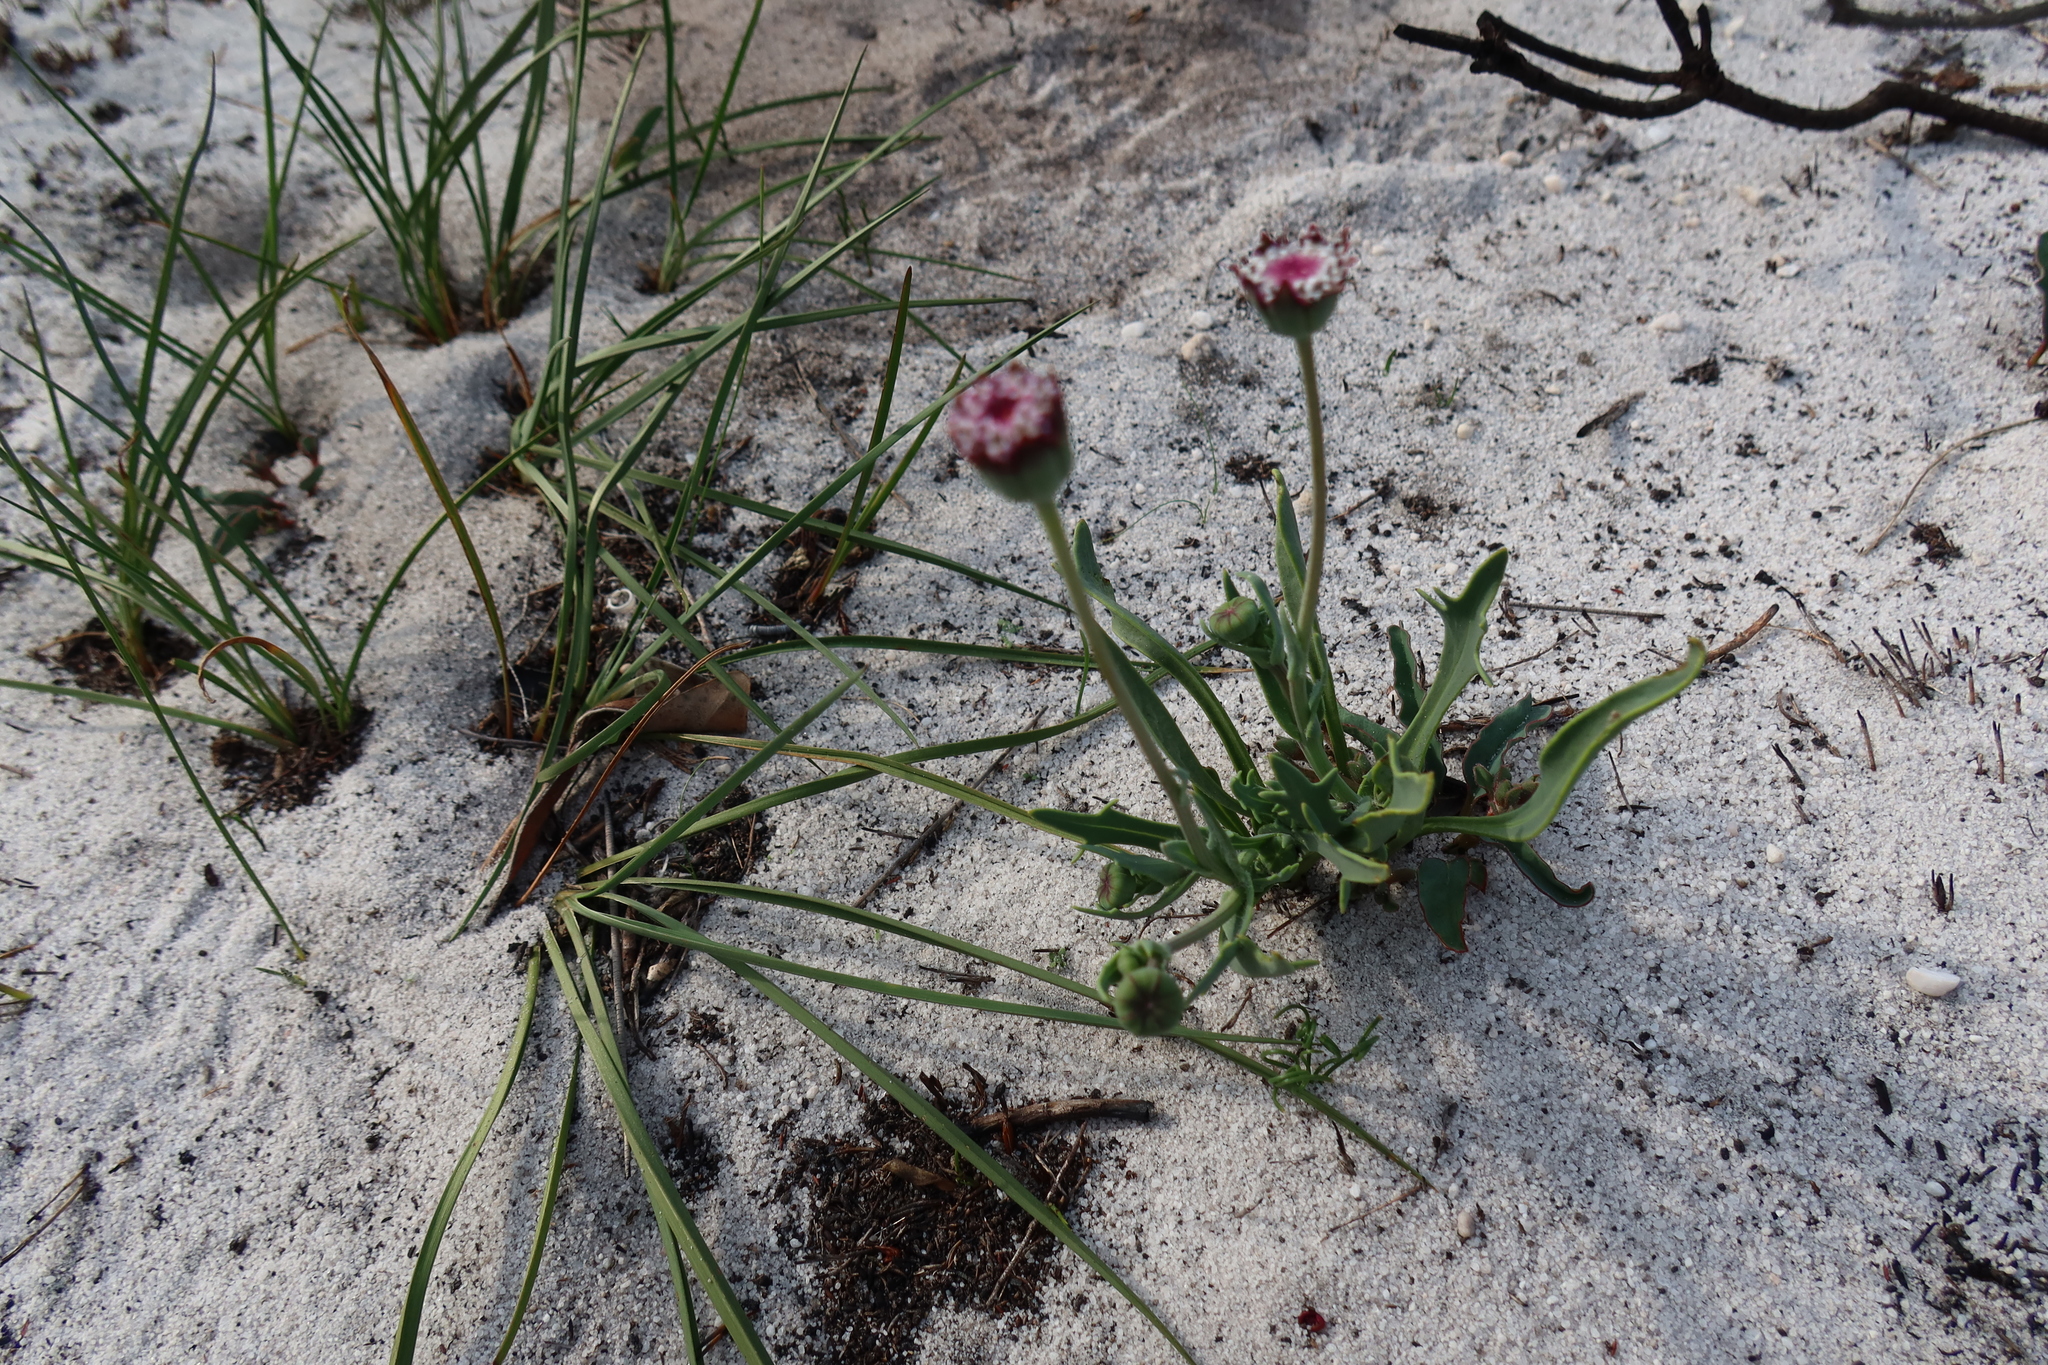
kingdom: Plantae
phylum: Tracheophyta
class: Magnoliopsida
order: Asterales
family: Asteraceae
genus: Othonna
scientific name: Othonna digitata
